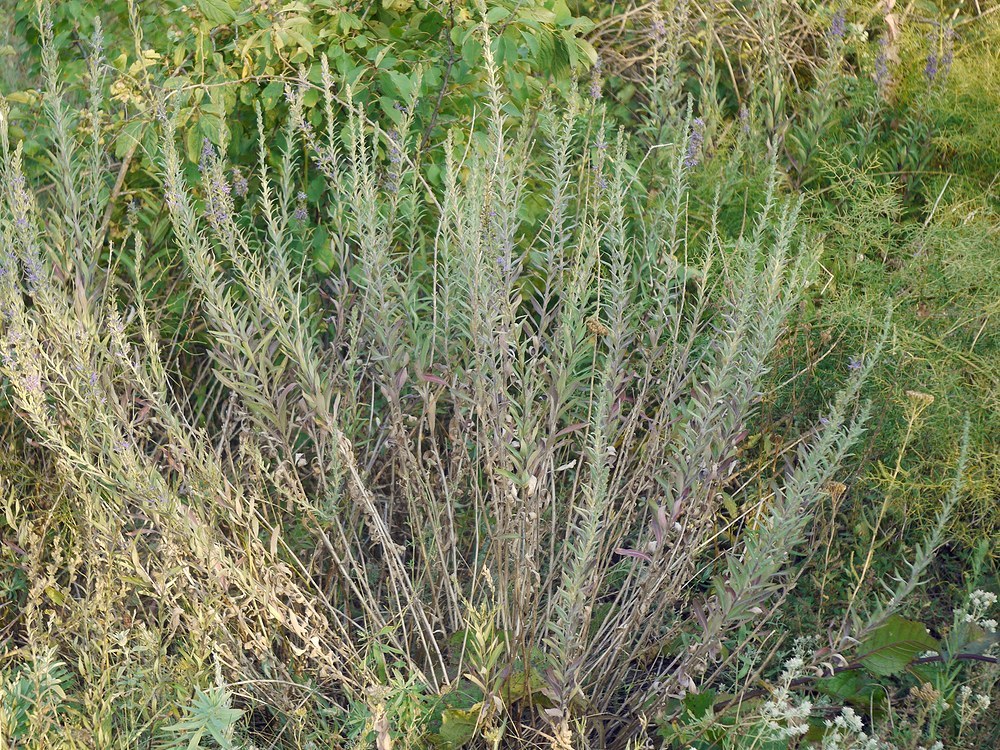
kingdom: Plantae
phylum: Tracheophyta
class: Magnoliopsida
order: Asterales
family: Campanulaceae
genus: Asyneuma
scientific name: Asyneuma canescens
